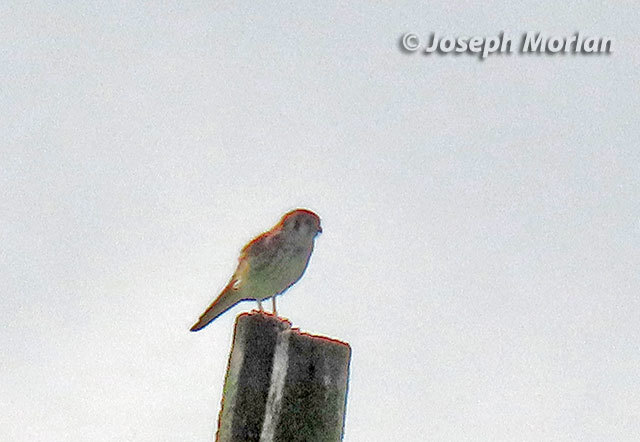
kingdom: Animalia
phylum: Chordata
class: Aves
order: Falconiformes
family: Falconidae
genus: Falco
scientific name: Falco sparverius
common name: American kestrel
